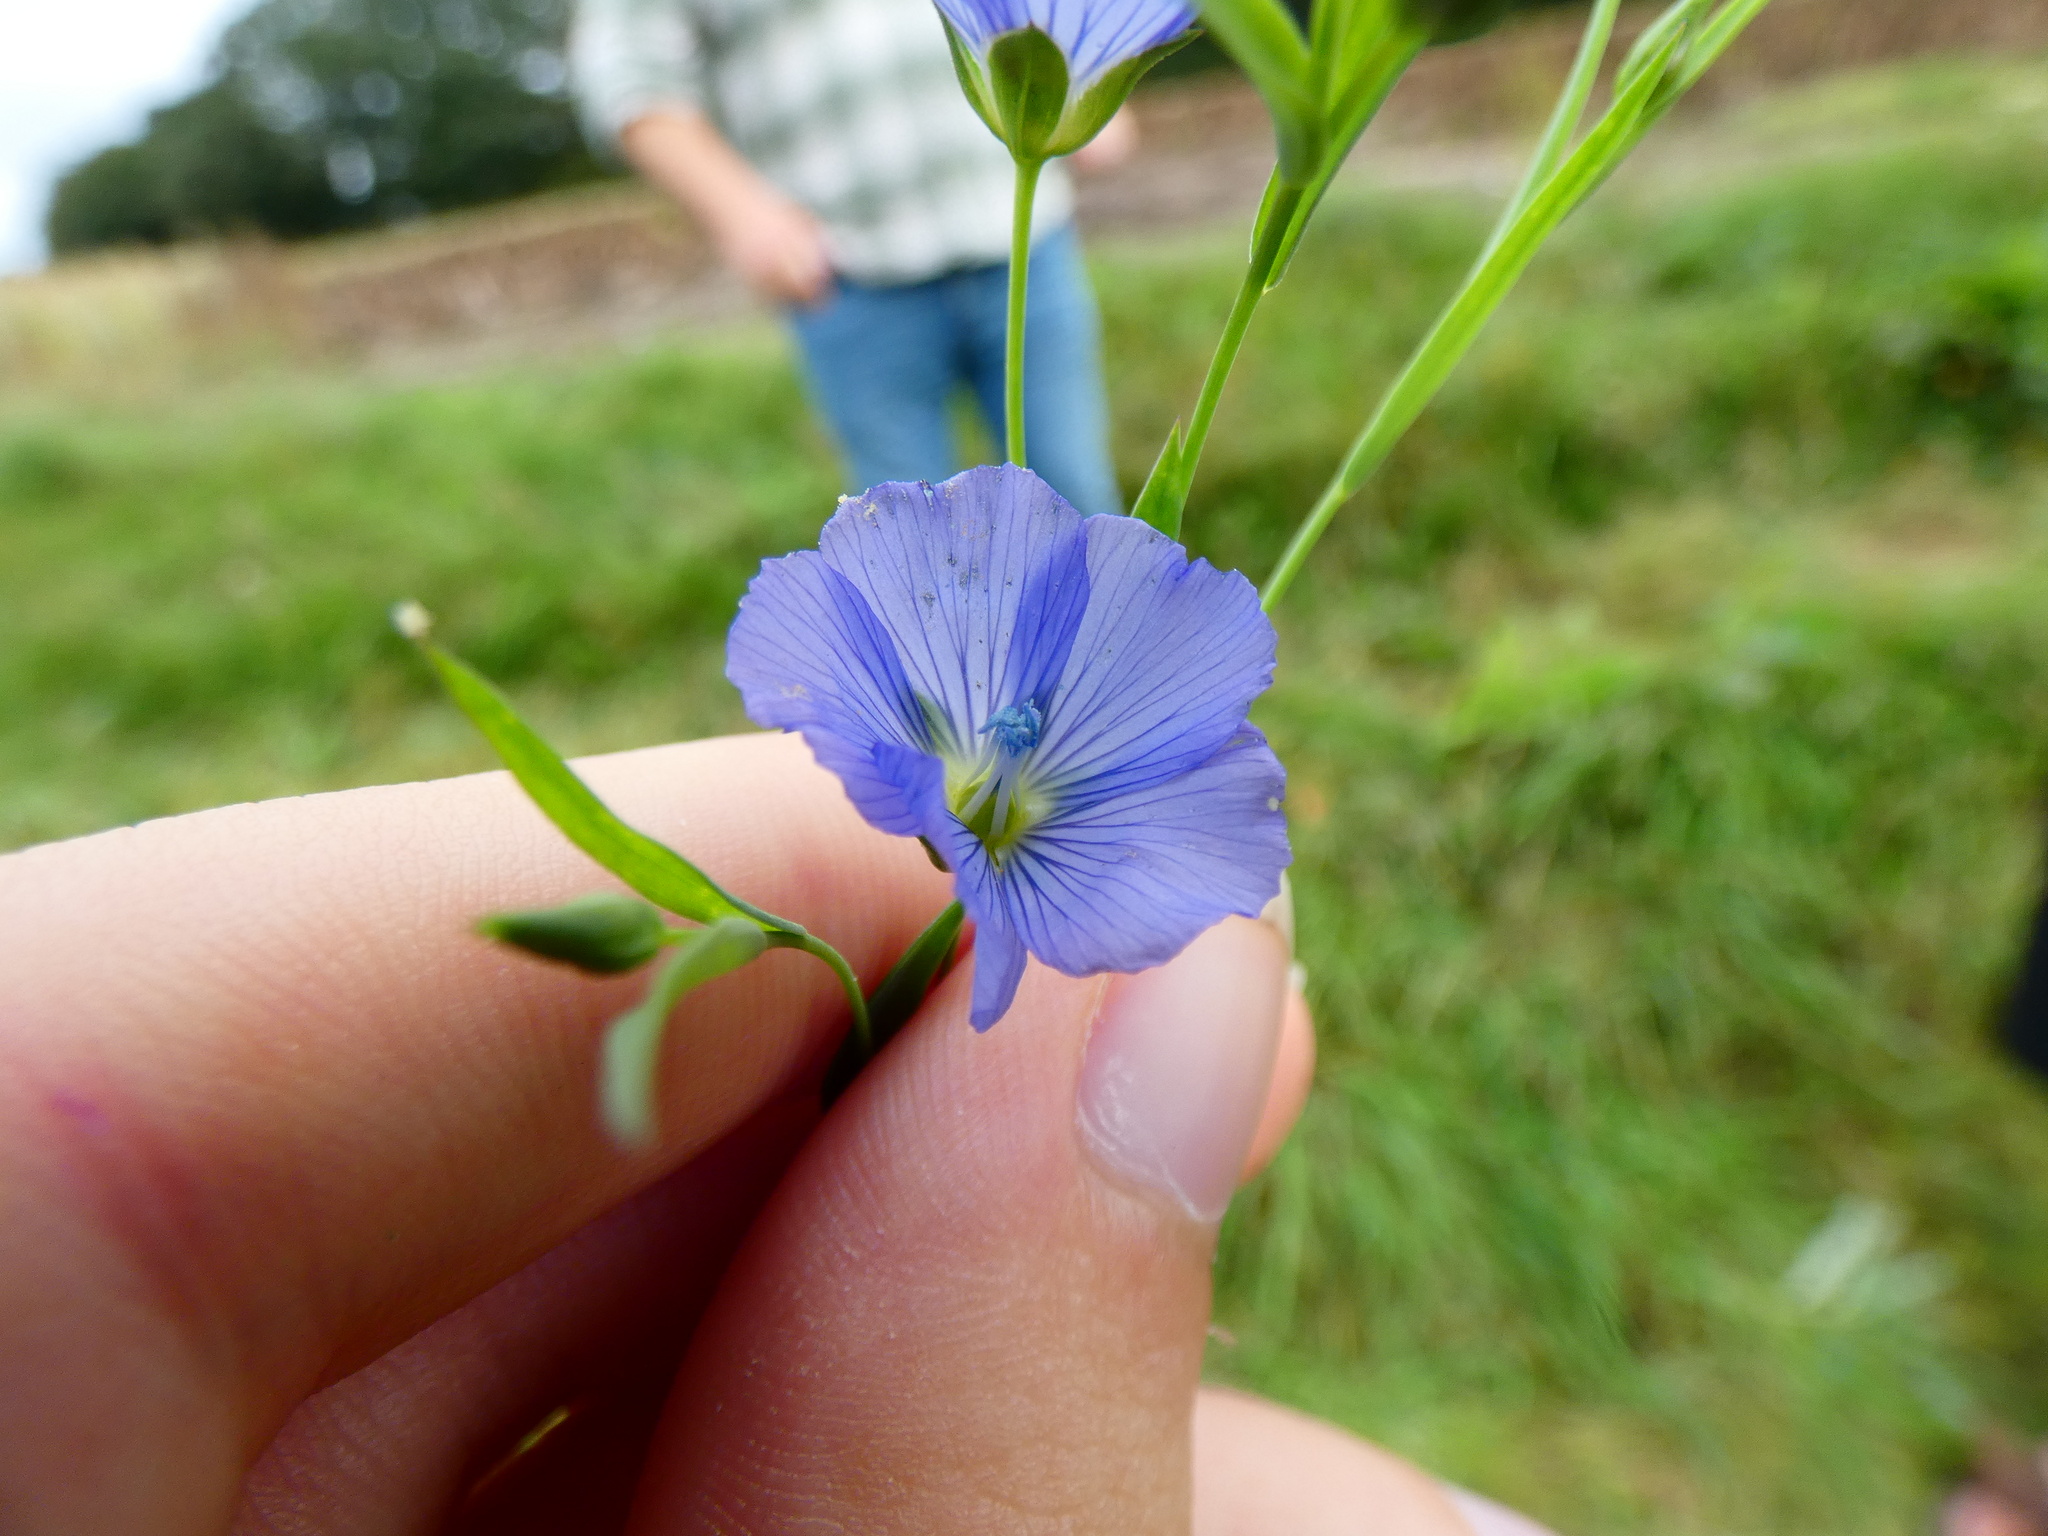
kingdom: Plantae
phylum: Tracheophyta
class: Magnoliopsida
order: Malpighiales
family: Linaceae
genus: Linum
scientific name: Linum usitatissimum
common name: Flax
